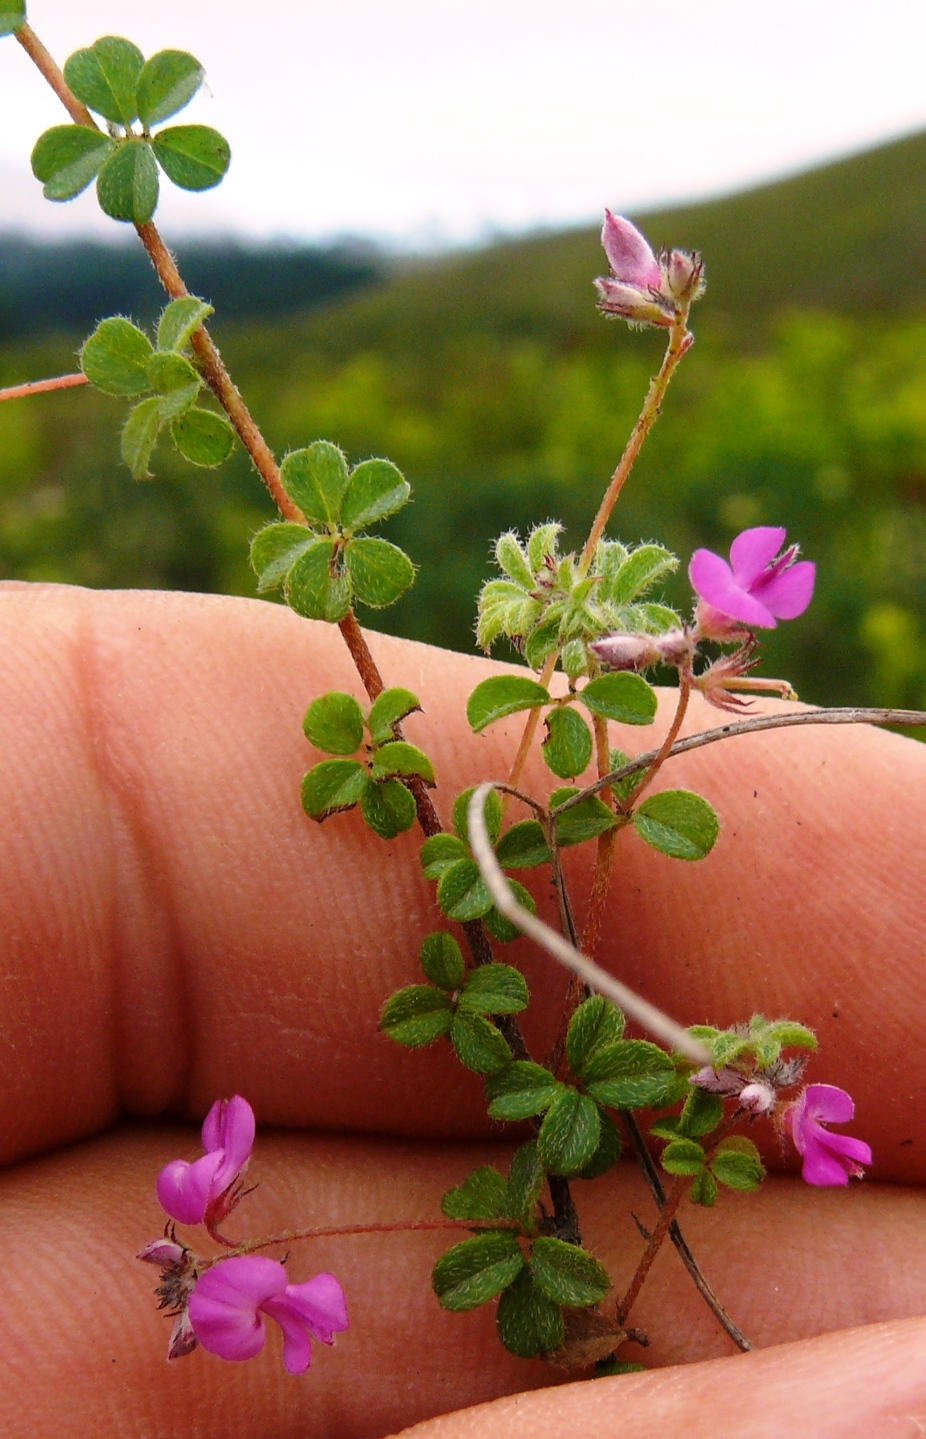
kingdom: Plantae
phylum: Tracheophyta
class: Magnoliopsida
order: Fabales
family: Fabaceae
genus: Indigofera
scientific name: Indigofera alopecuroides
